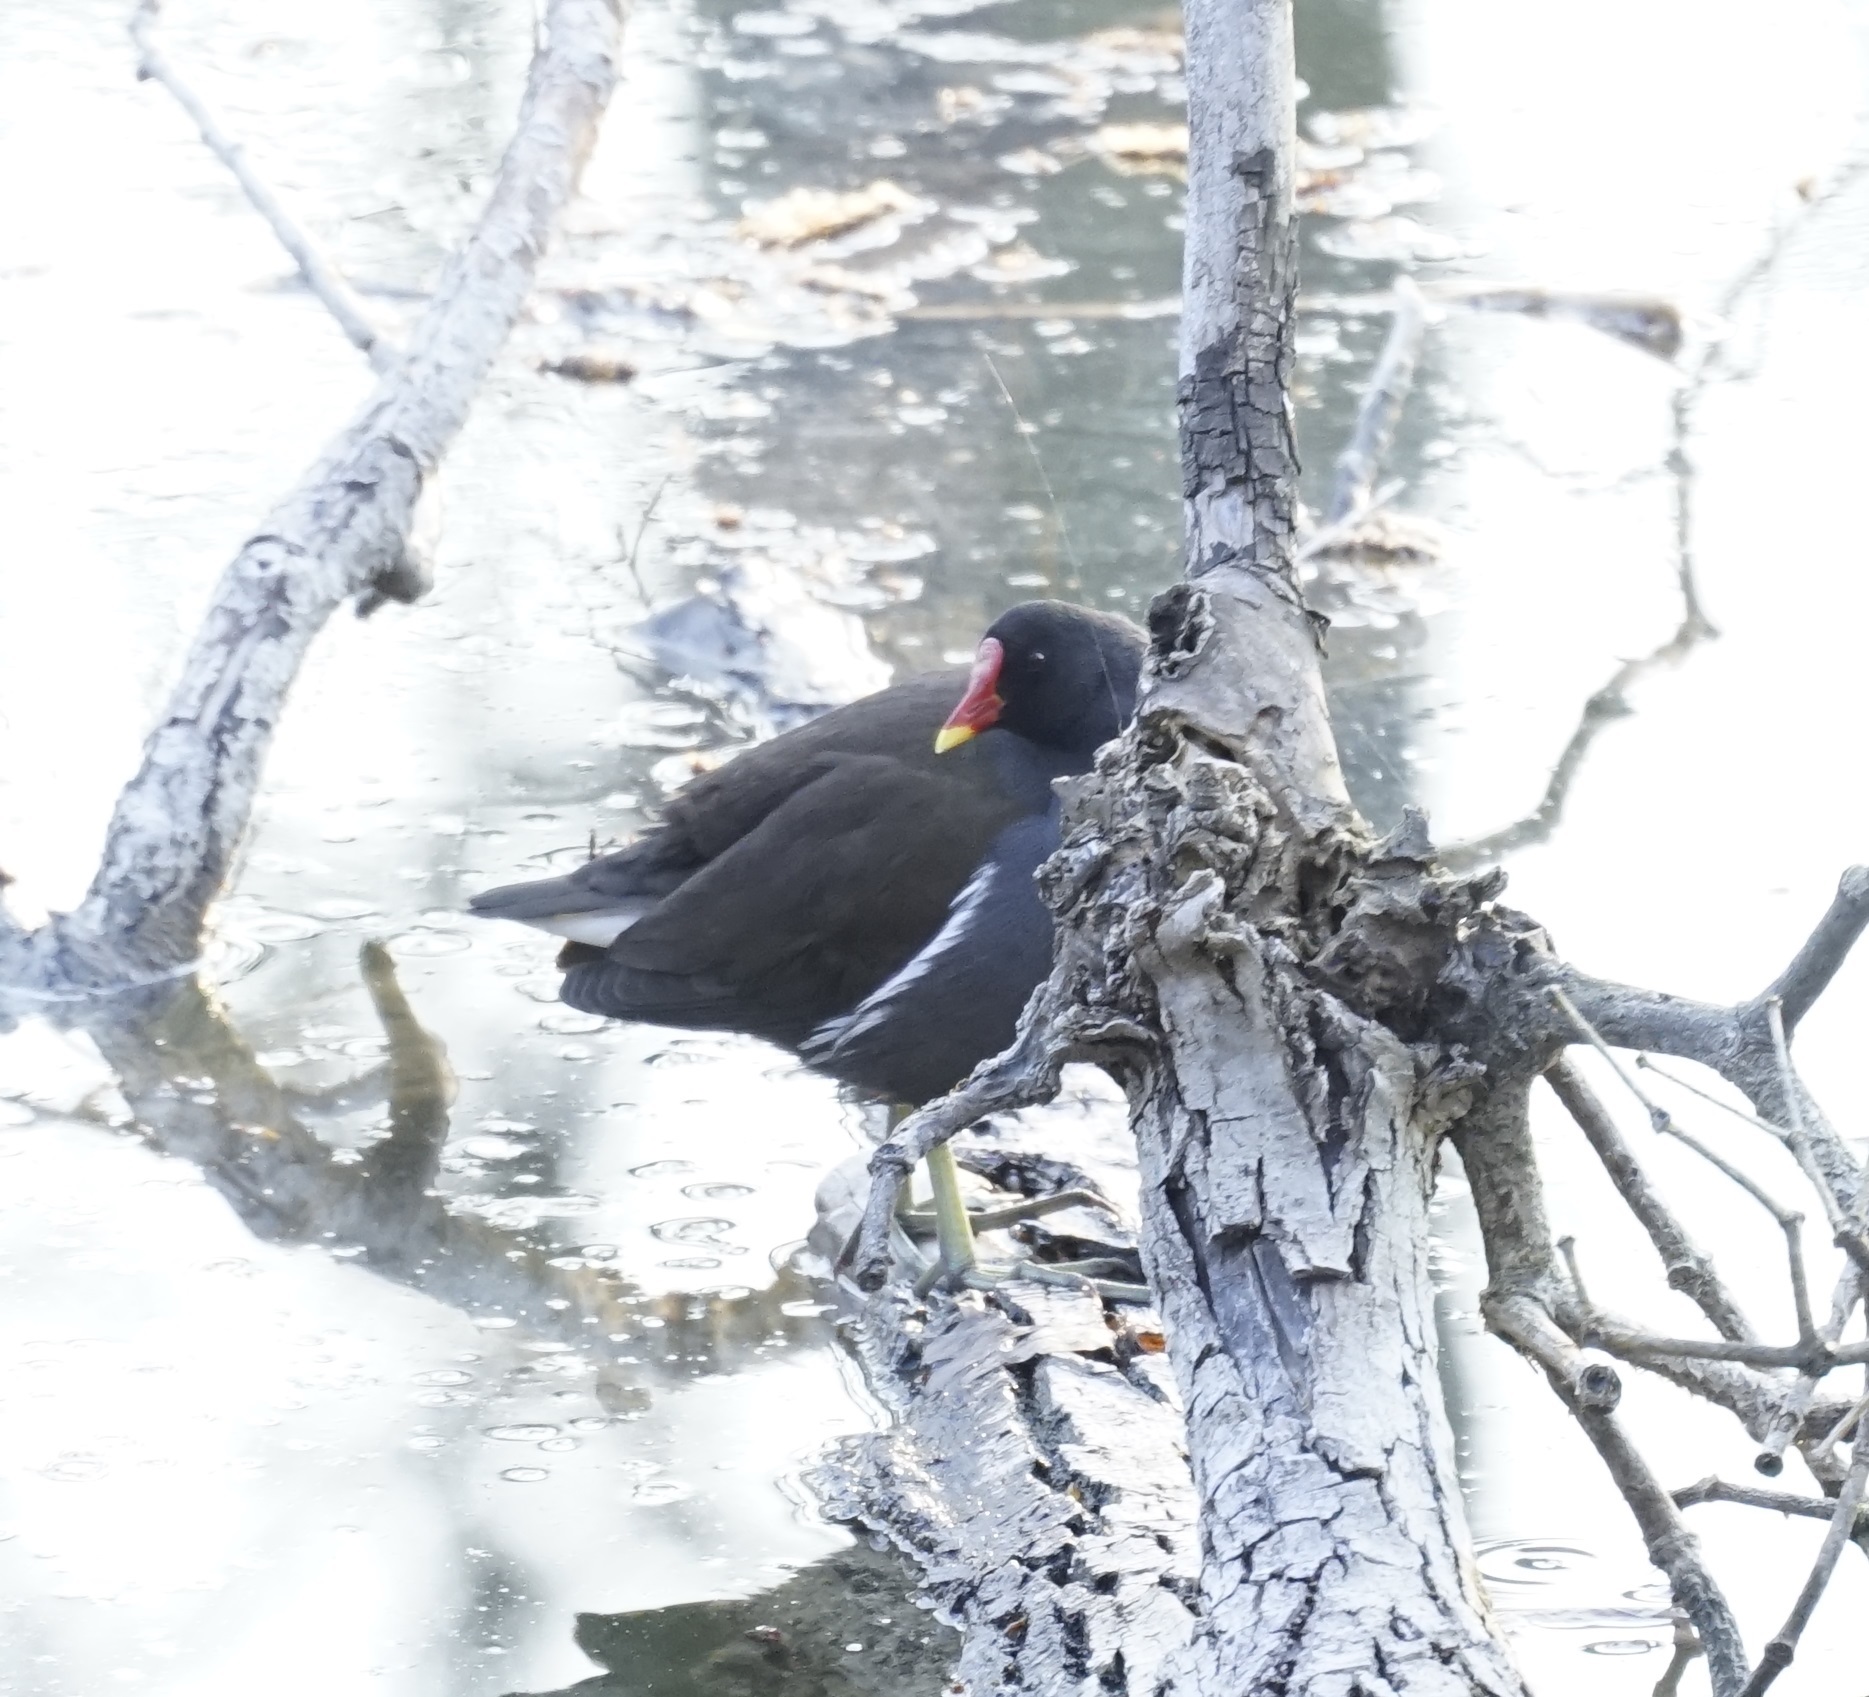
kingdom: Animalia
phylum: Chordata
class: Aves
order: Gruiformes
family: Rallidae
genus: Gallinula
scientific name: Gallinula chloropus
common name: Common moorhen
